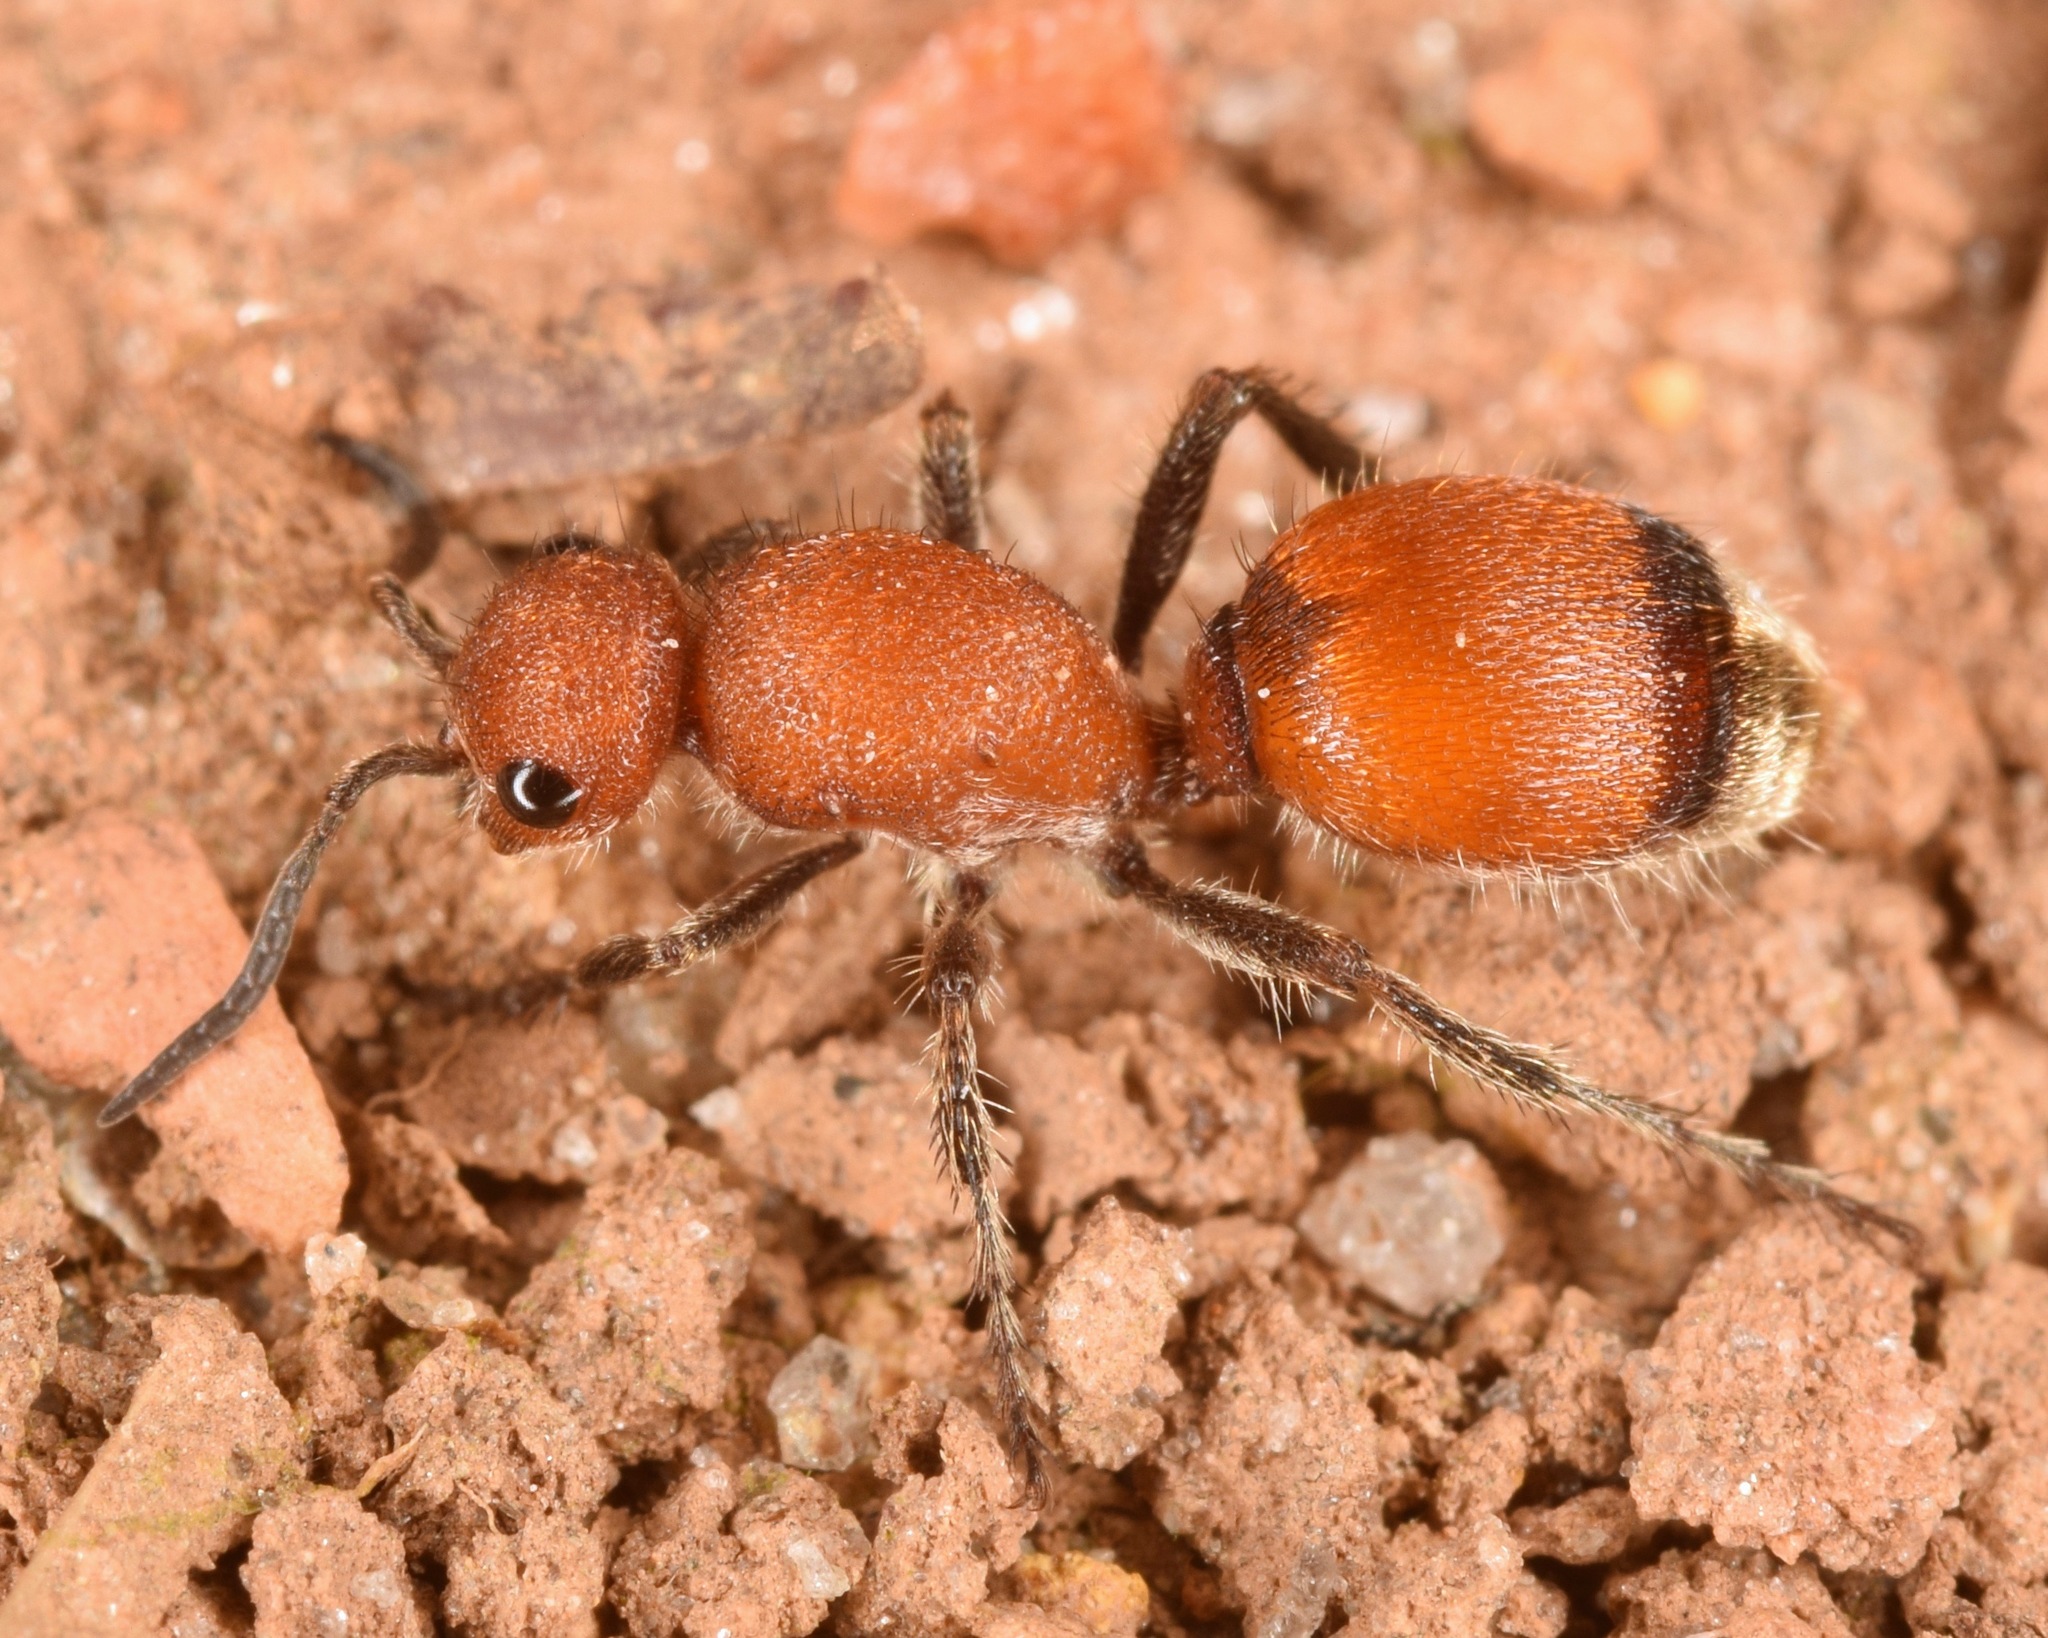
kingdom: Animalia
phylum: Arthropoda
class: Insecta
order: Hymenoptera
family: Mutillidae
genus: Dasymutilla
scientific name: Dasymutilla
